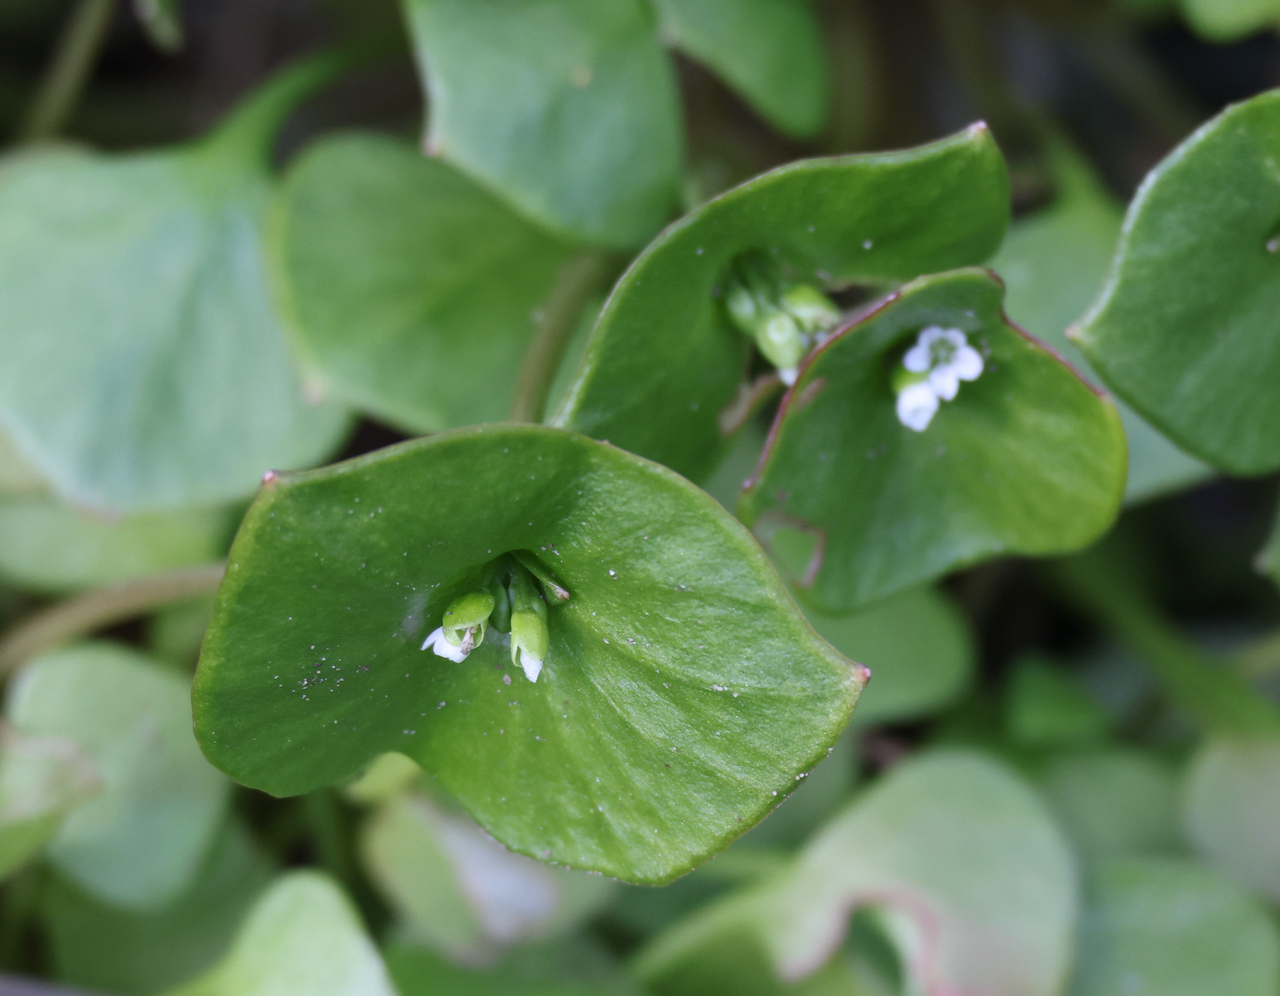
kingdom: Plantae
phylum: Tracheophyta
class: Magnoliopsida
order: Caryophyllales
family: Montiaceae
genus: Claytonia
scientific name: Claytonia perfoliata
